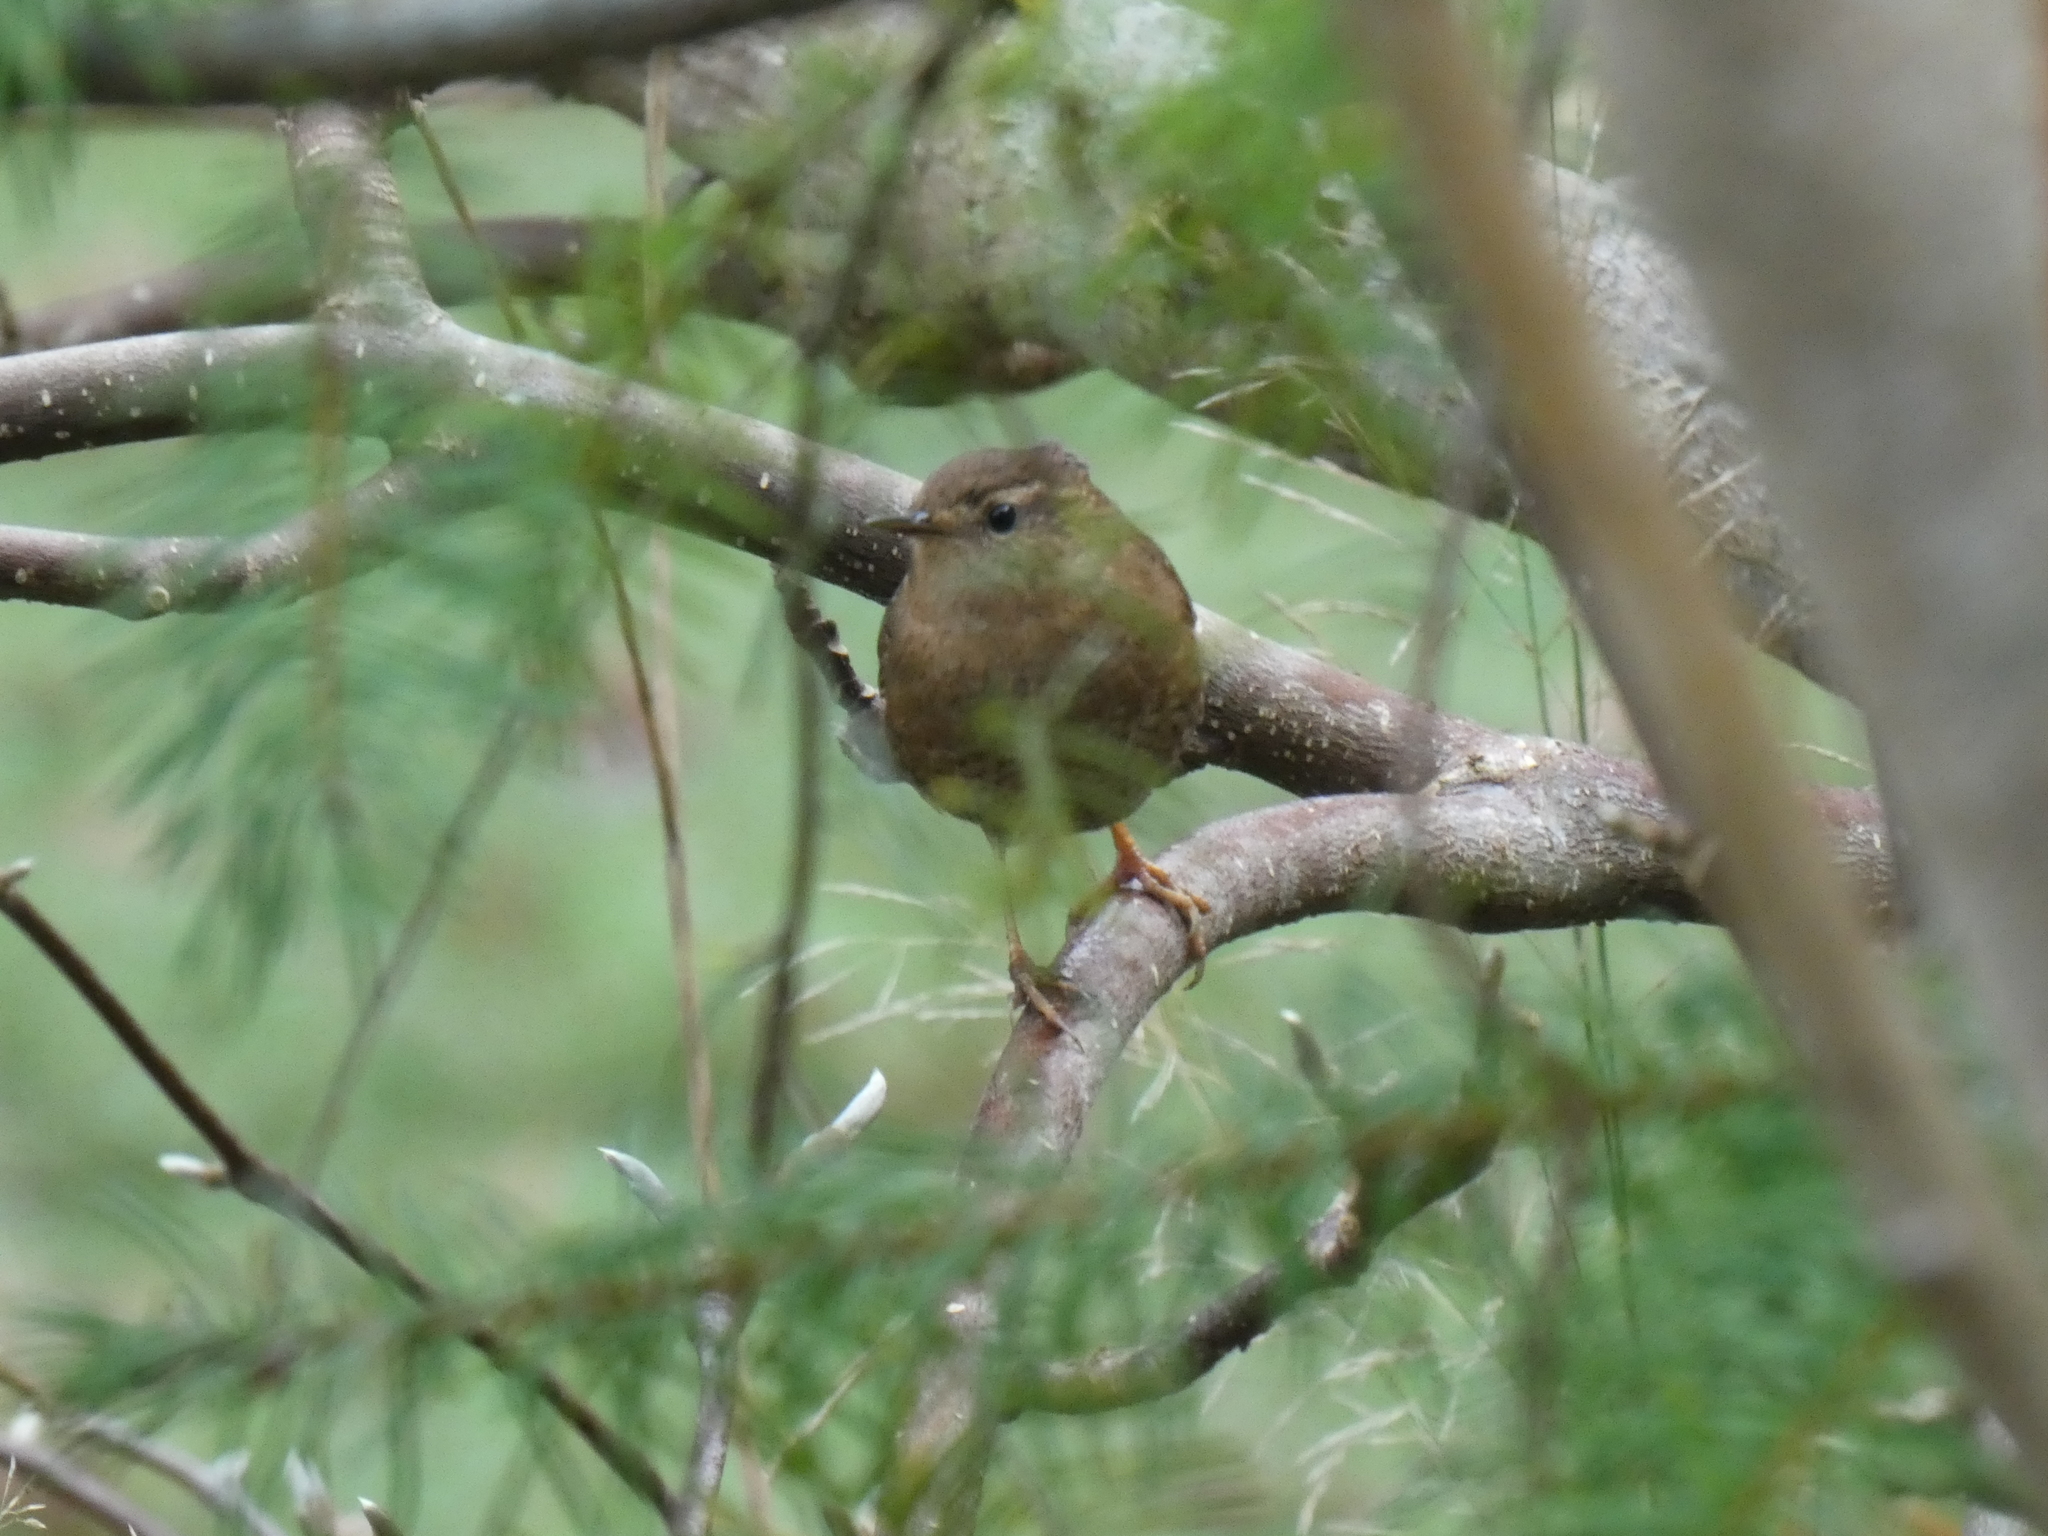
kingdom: Animalia
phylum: Chordata
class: Aves
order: Passeriformes
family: Troglodytidae
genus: Troglodytes
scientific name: Troglodytes pacificus
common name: Pacific wren
